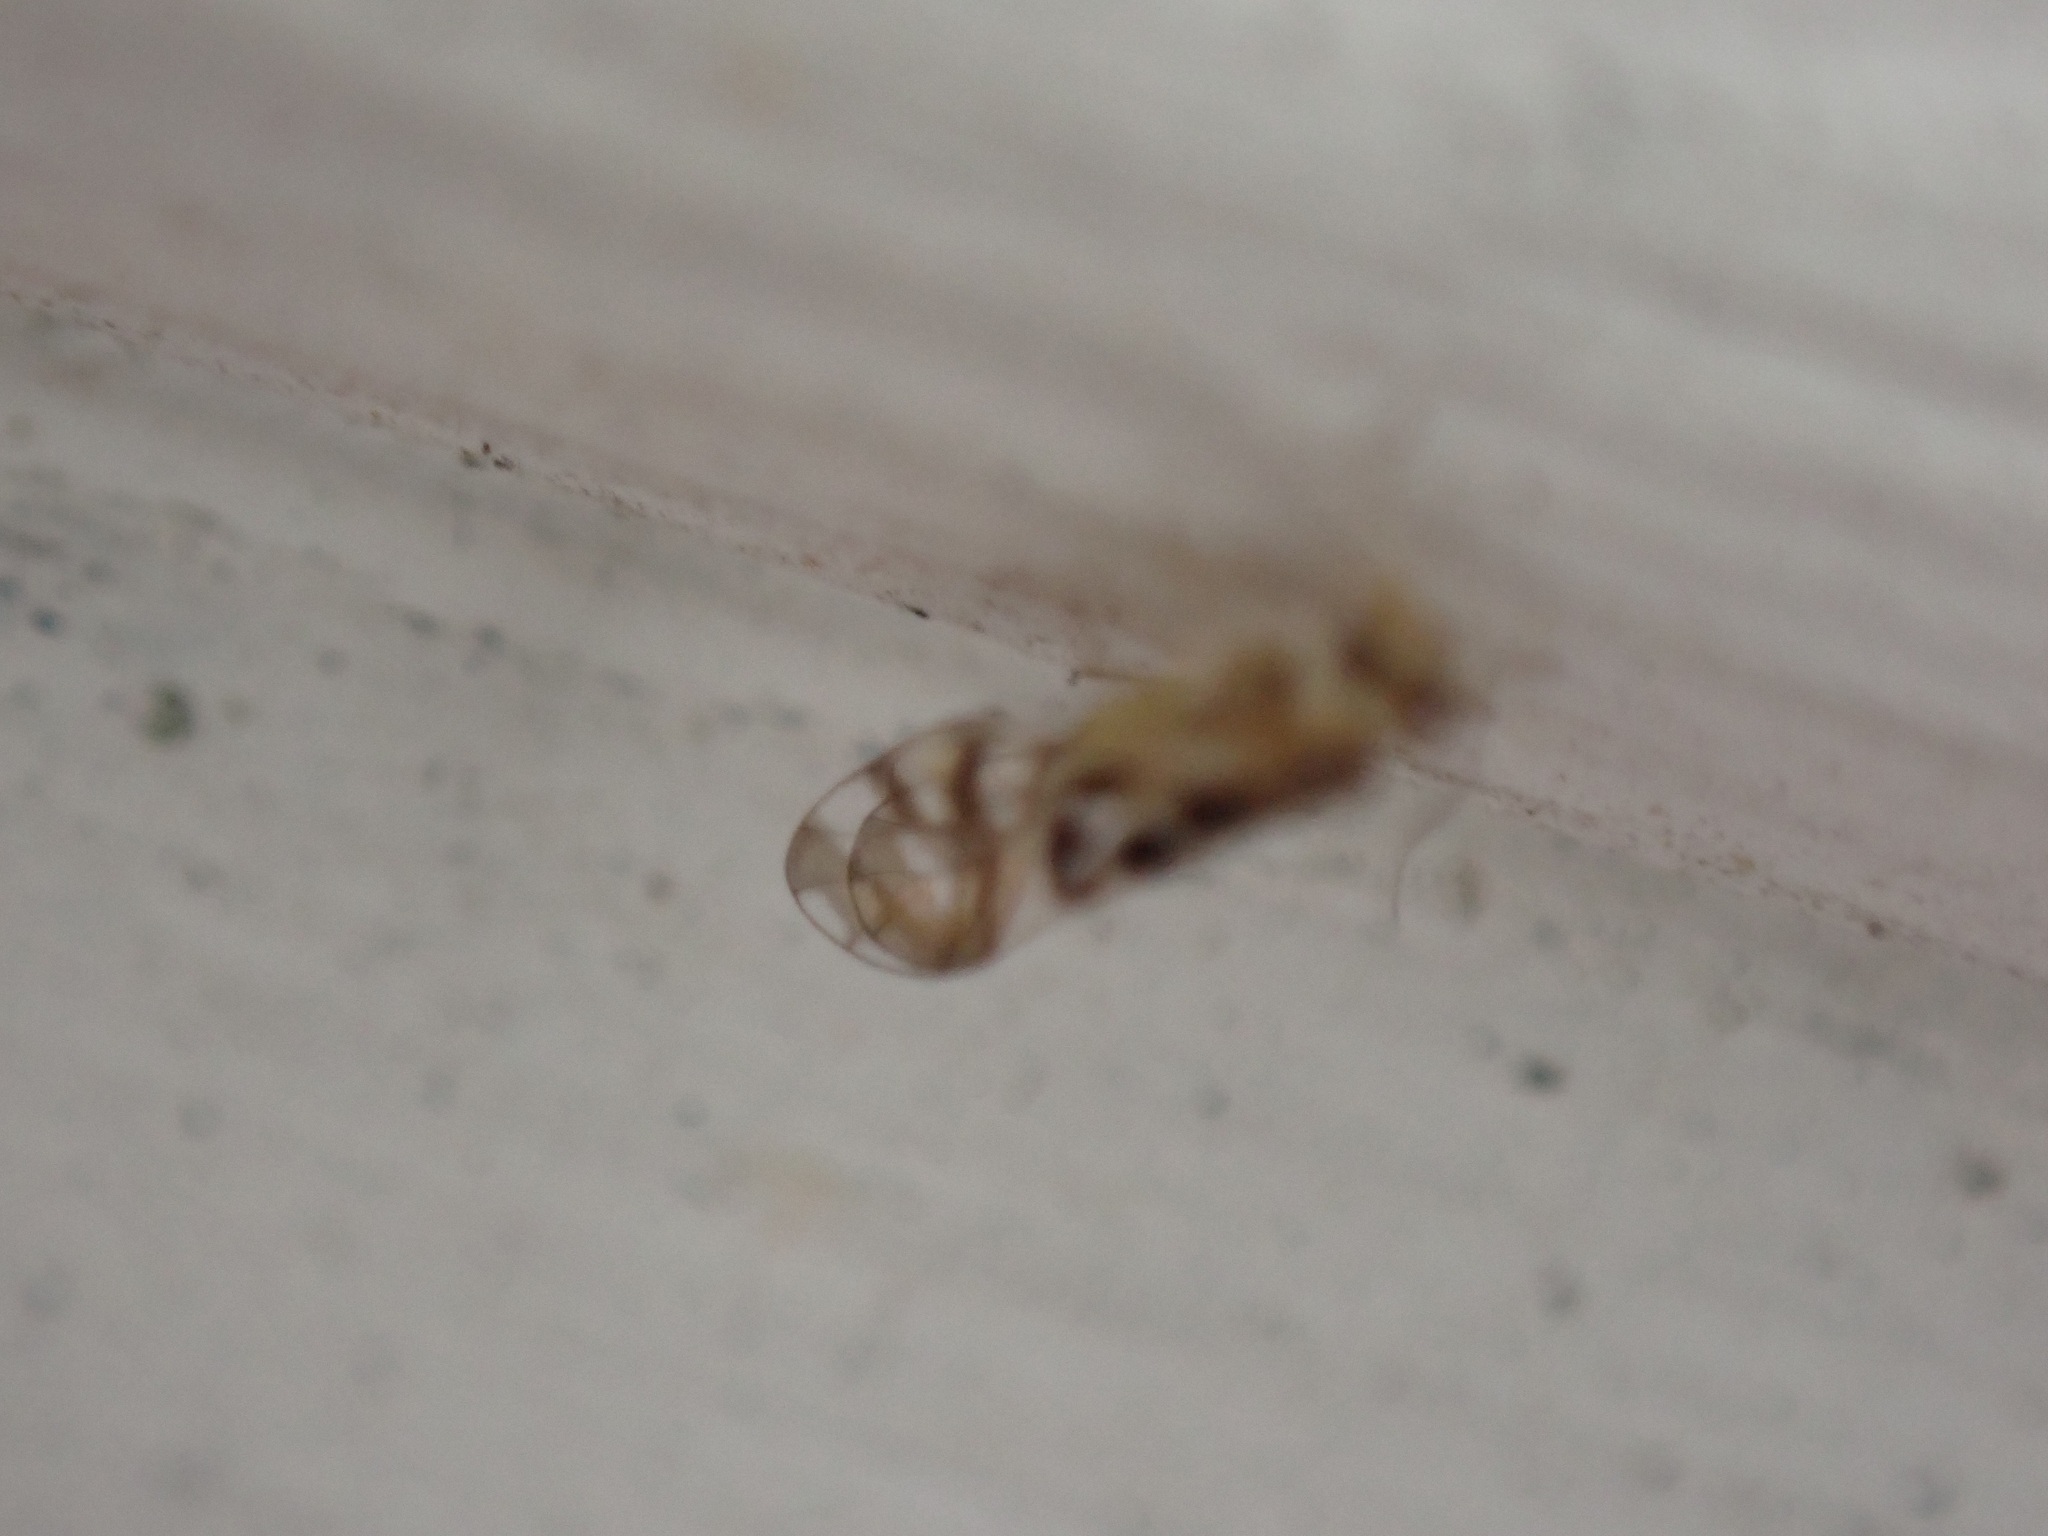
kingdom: Animalia
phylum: Arthropoda
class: Insecta
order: Psocodea
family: Stenopsocidae
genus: Graphopsocus
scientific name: Graphopsocus cruciatus
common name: Lizard bark louse
